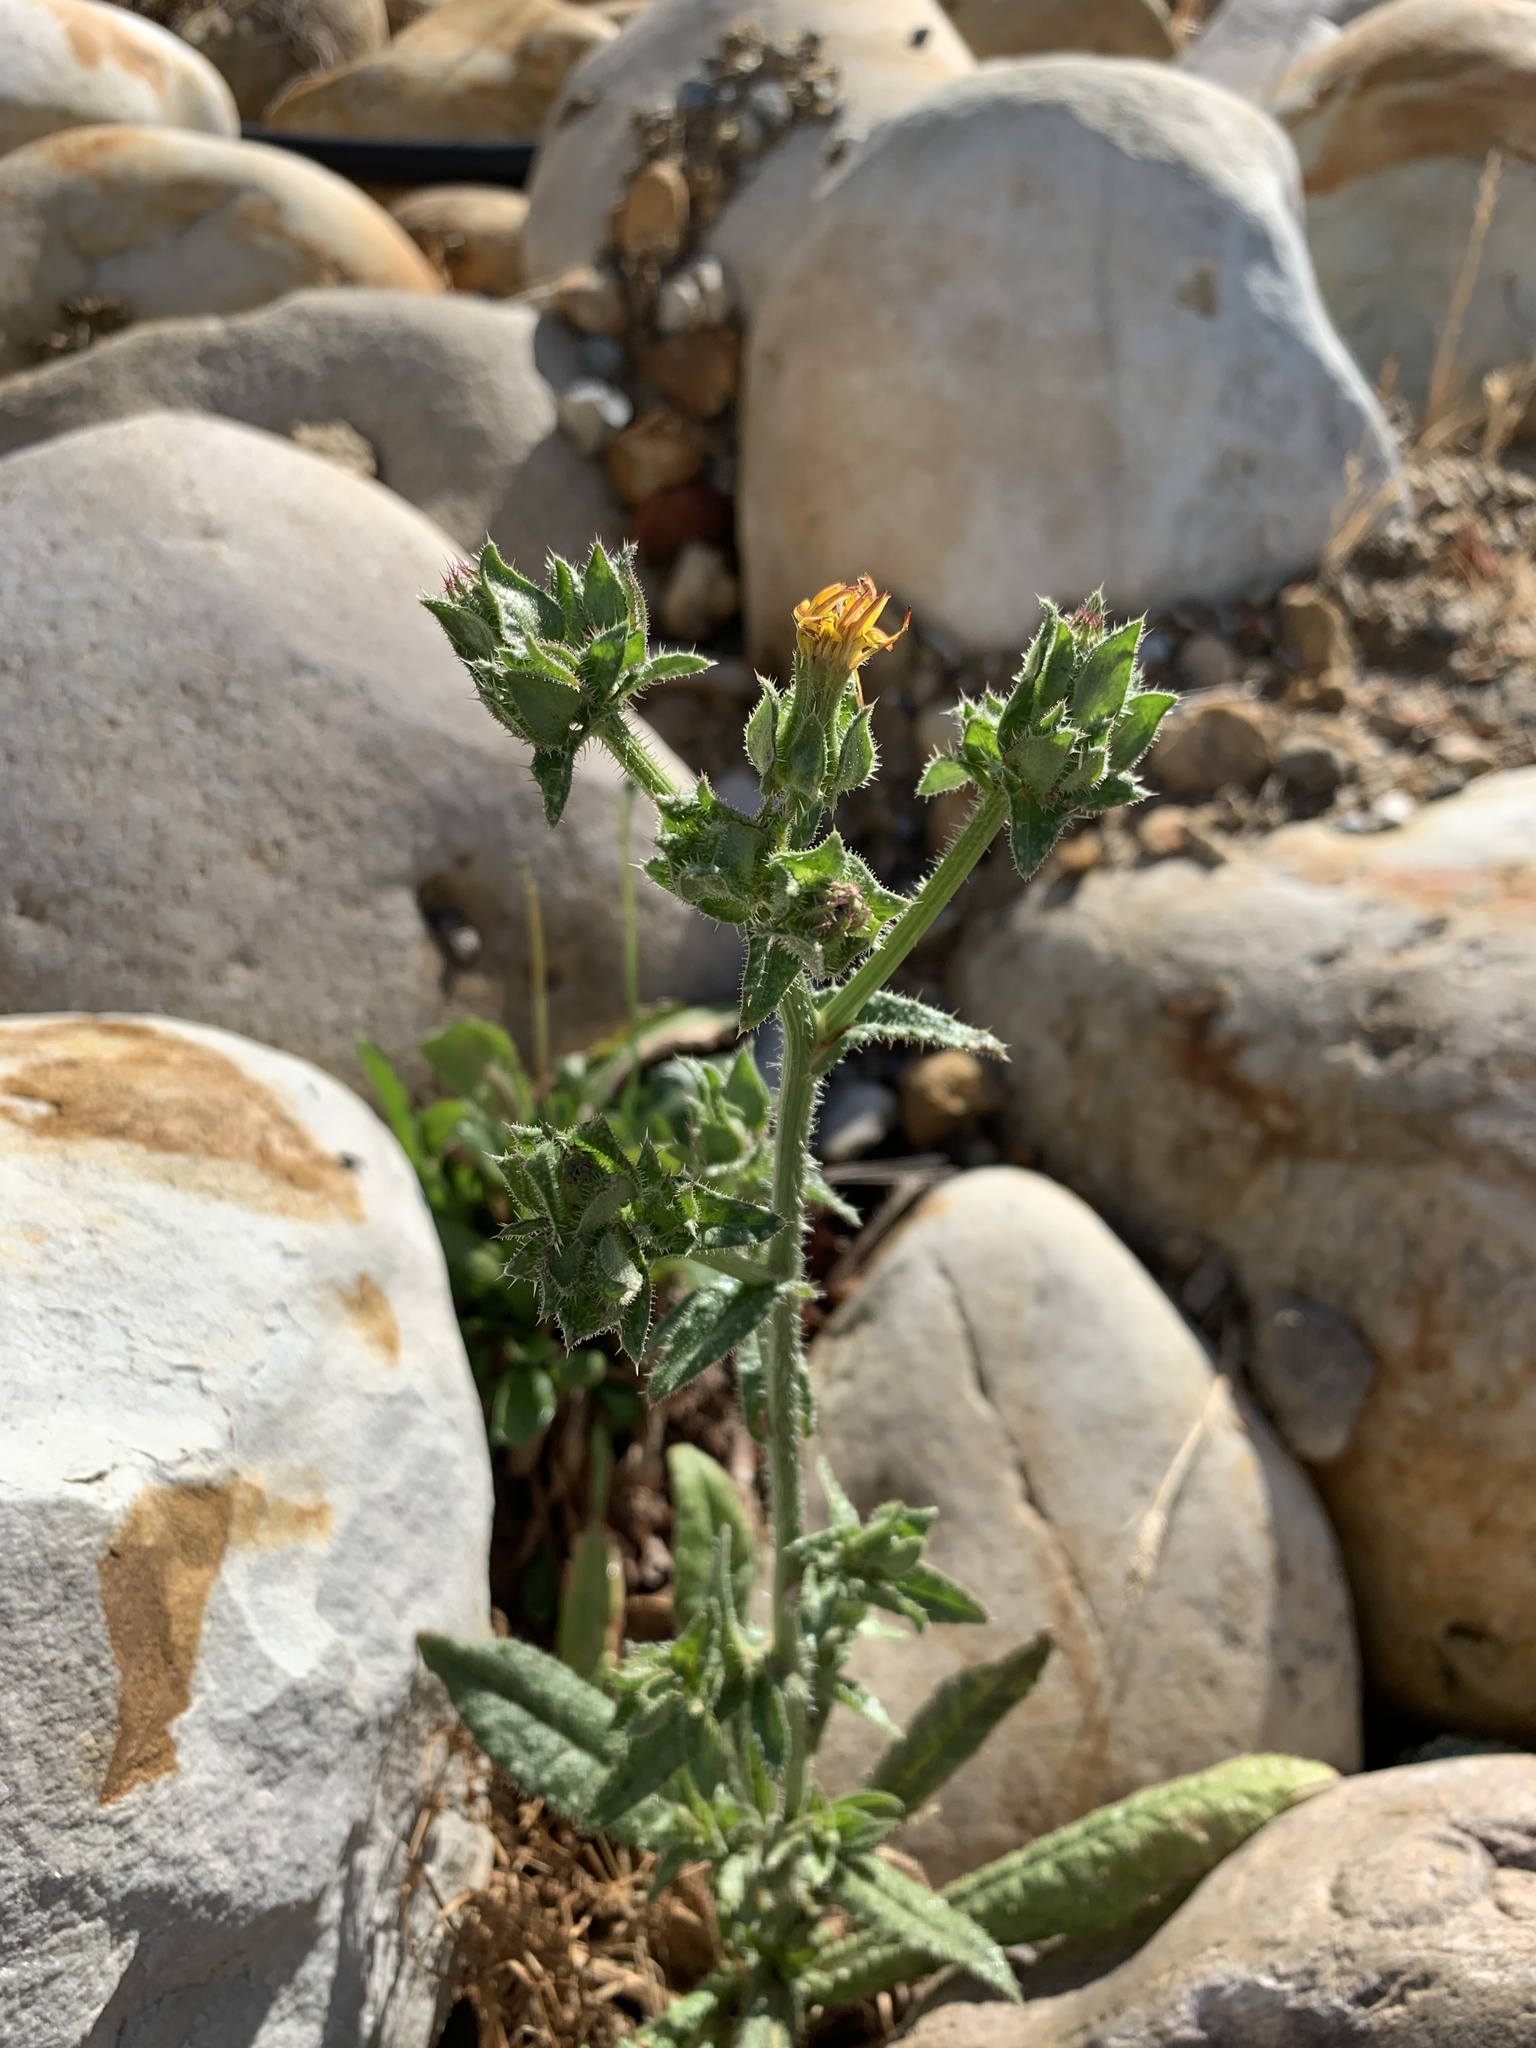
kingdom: Plantae
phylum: Tracheophyta
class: Magnoliopsida
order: Asterales
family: Asteraceae
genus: Helminthotheca
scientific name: Helminthotheca echioides
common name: Ox-tongue
